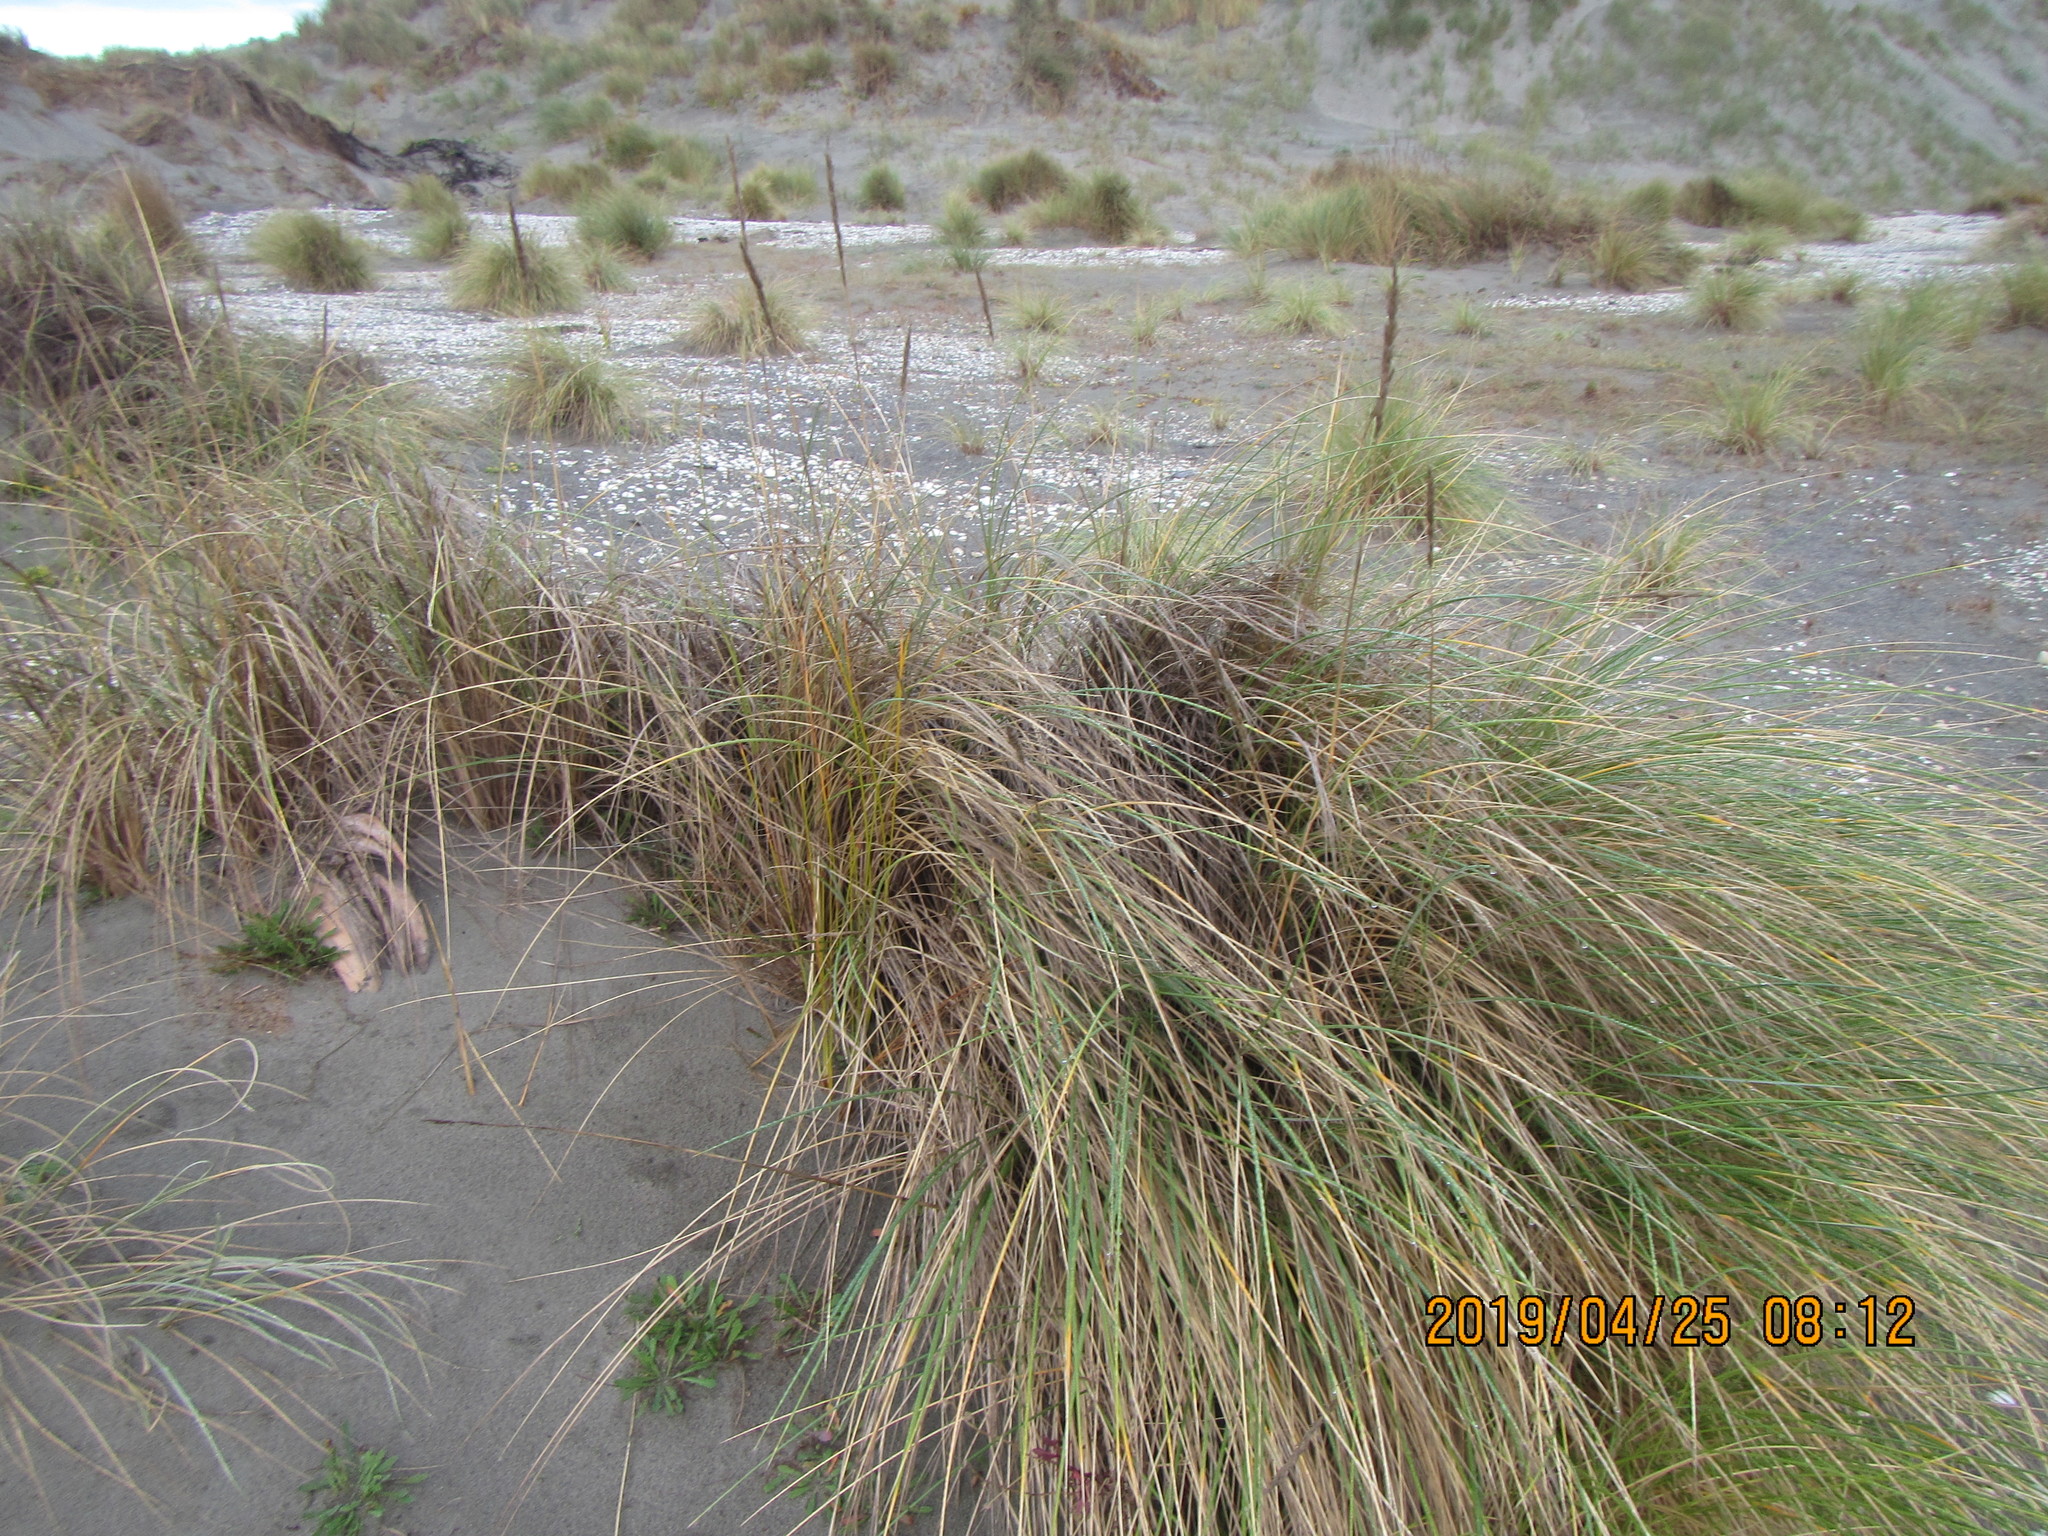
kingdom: Plantae
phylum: Tracheophyta
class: Liliopsida
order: Poales
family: Poaceae
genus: Calamagrostis
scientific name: Calamagrostis arenaria
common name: European beachgrass
